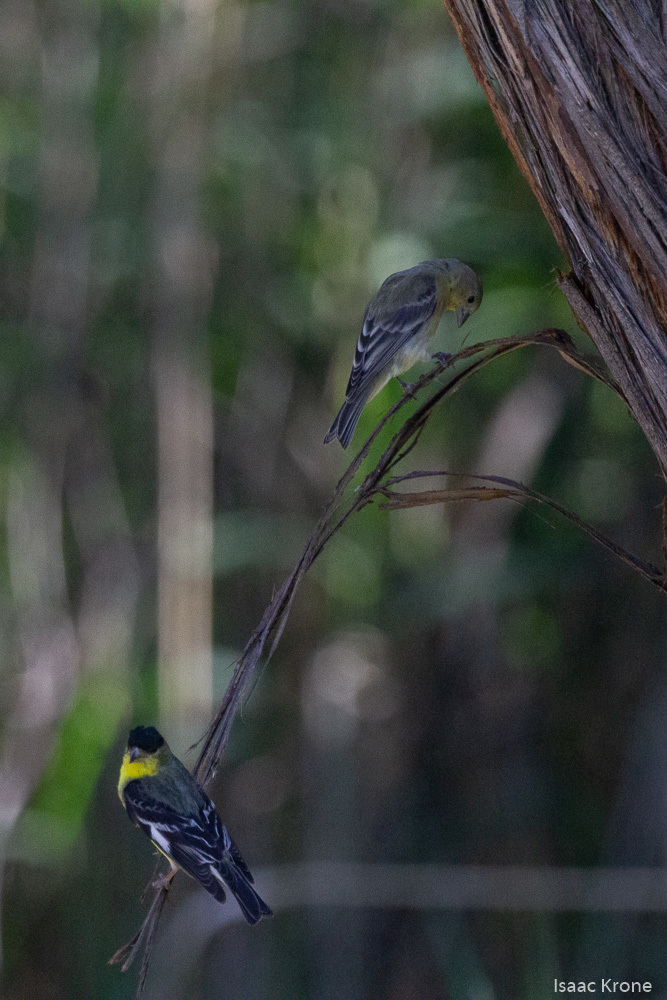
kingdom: Animalia
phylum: Chordata
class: Aves
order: Passeriformes
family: Fringillidae
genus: Spinus
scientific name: Spinus psaltria
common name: Lesser goldfinch
